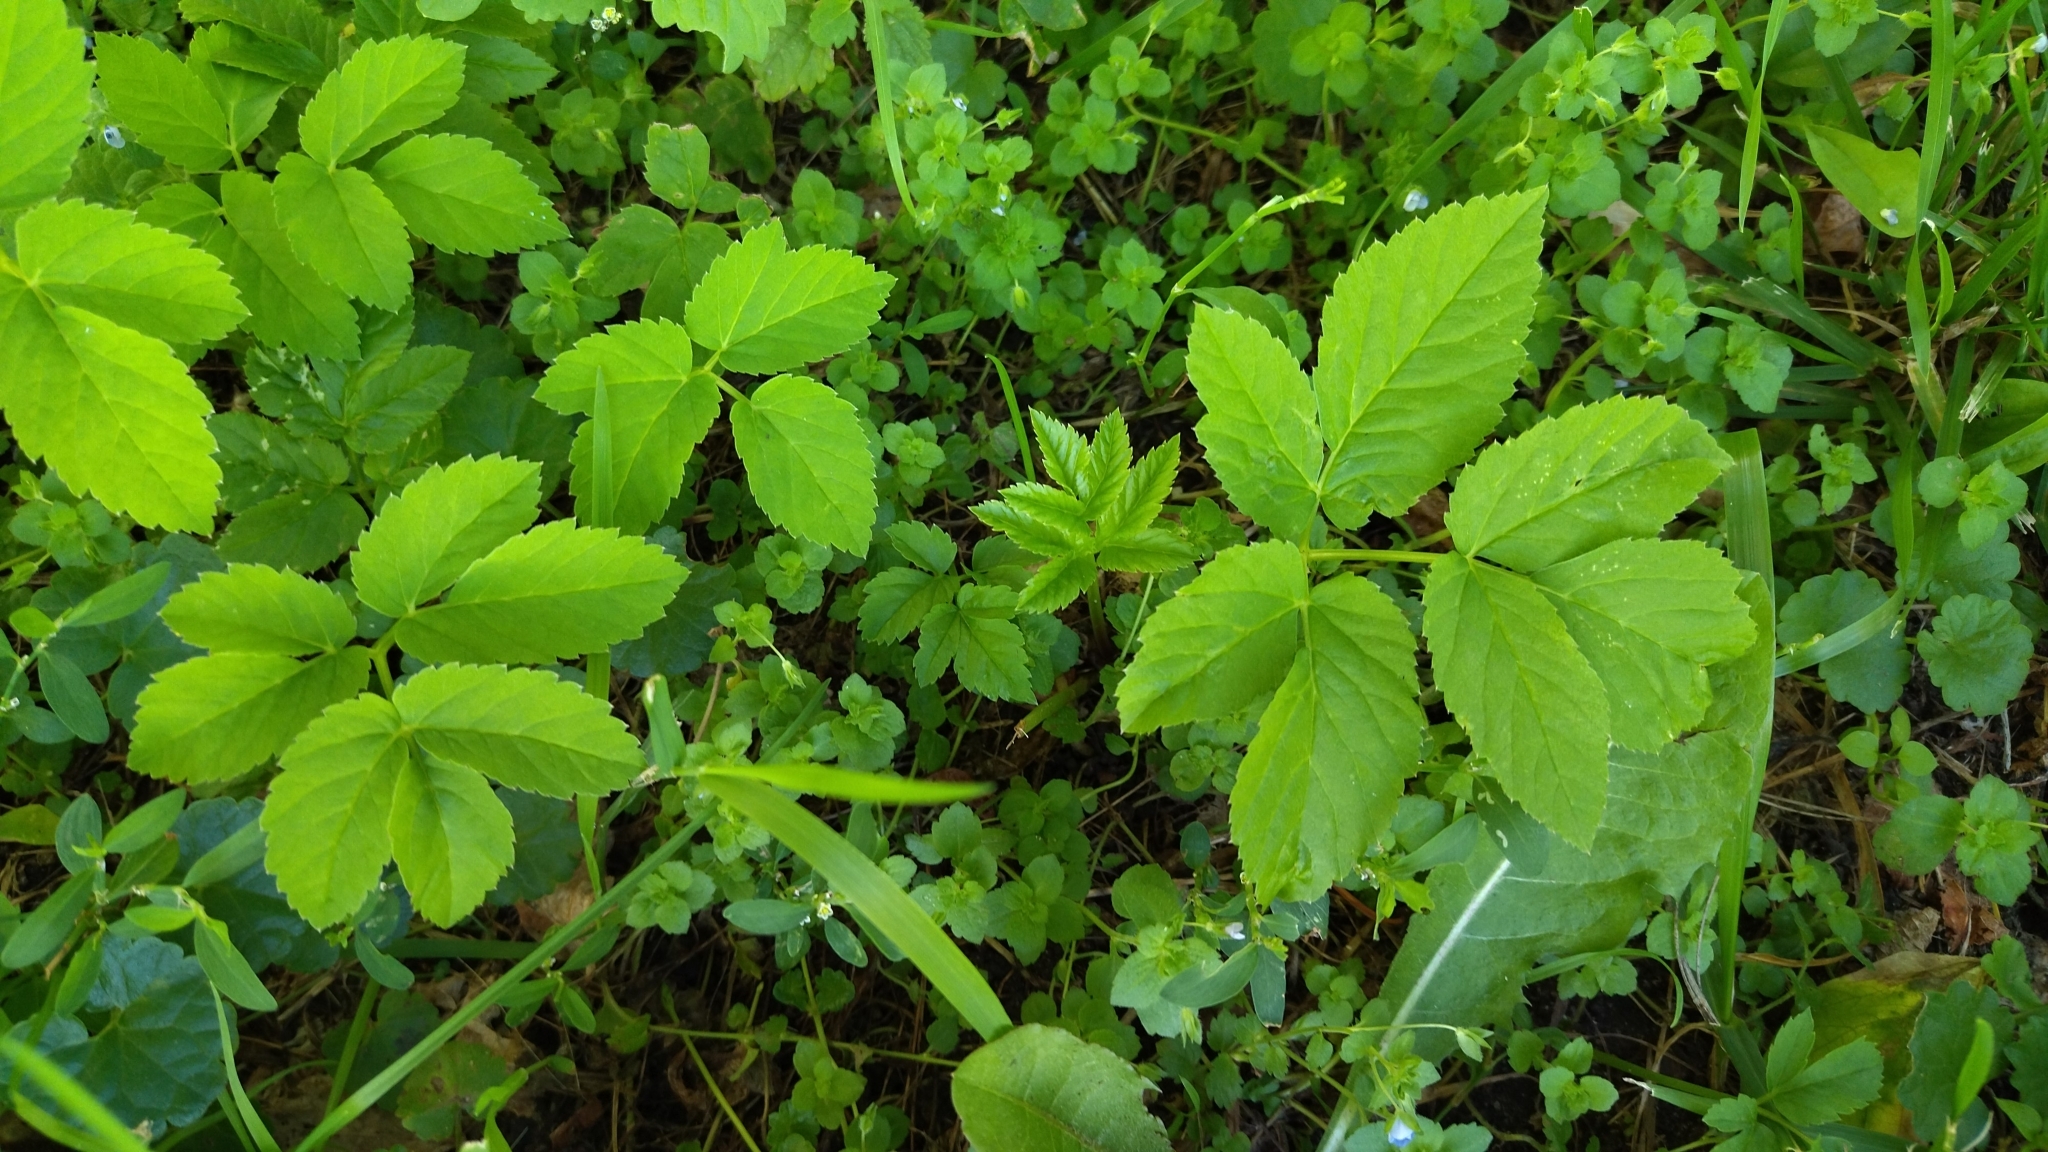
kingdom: Plantae
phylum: Tracheophyta
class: Magnoliopsida
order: Apiales
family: Apiaceae
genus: Aegopodium
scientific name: Aegopodium podagraria
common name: Ground-elder
